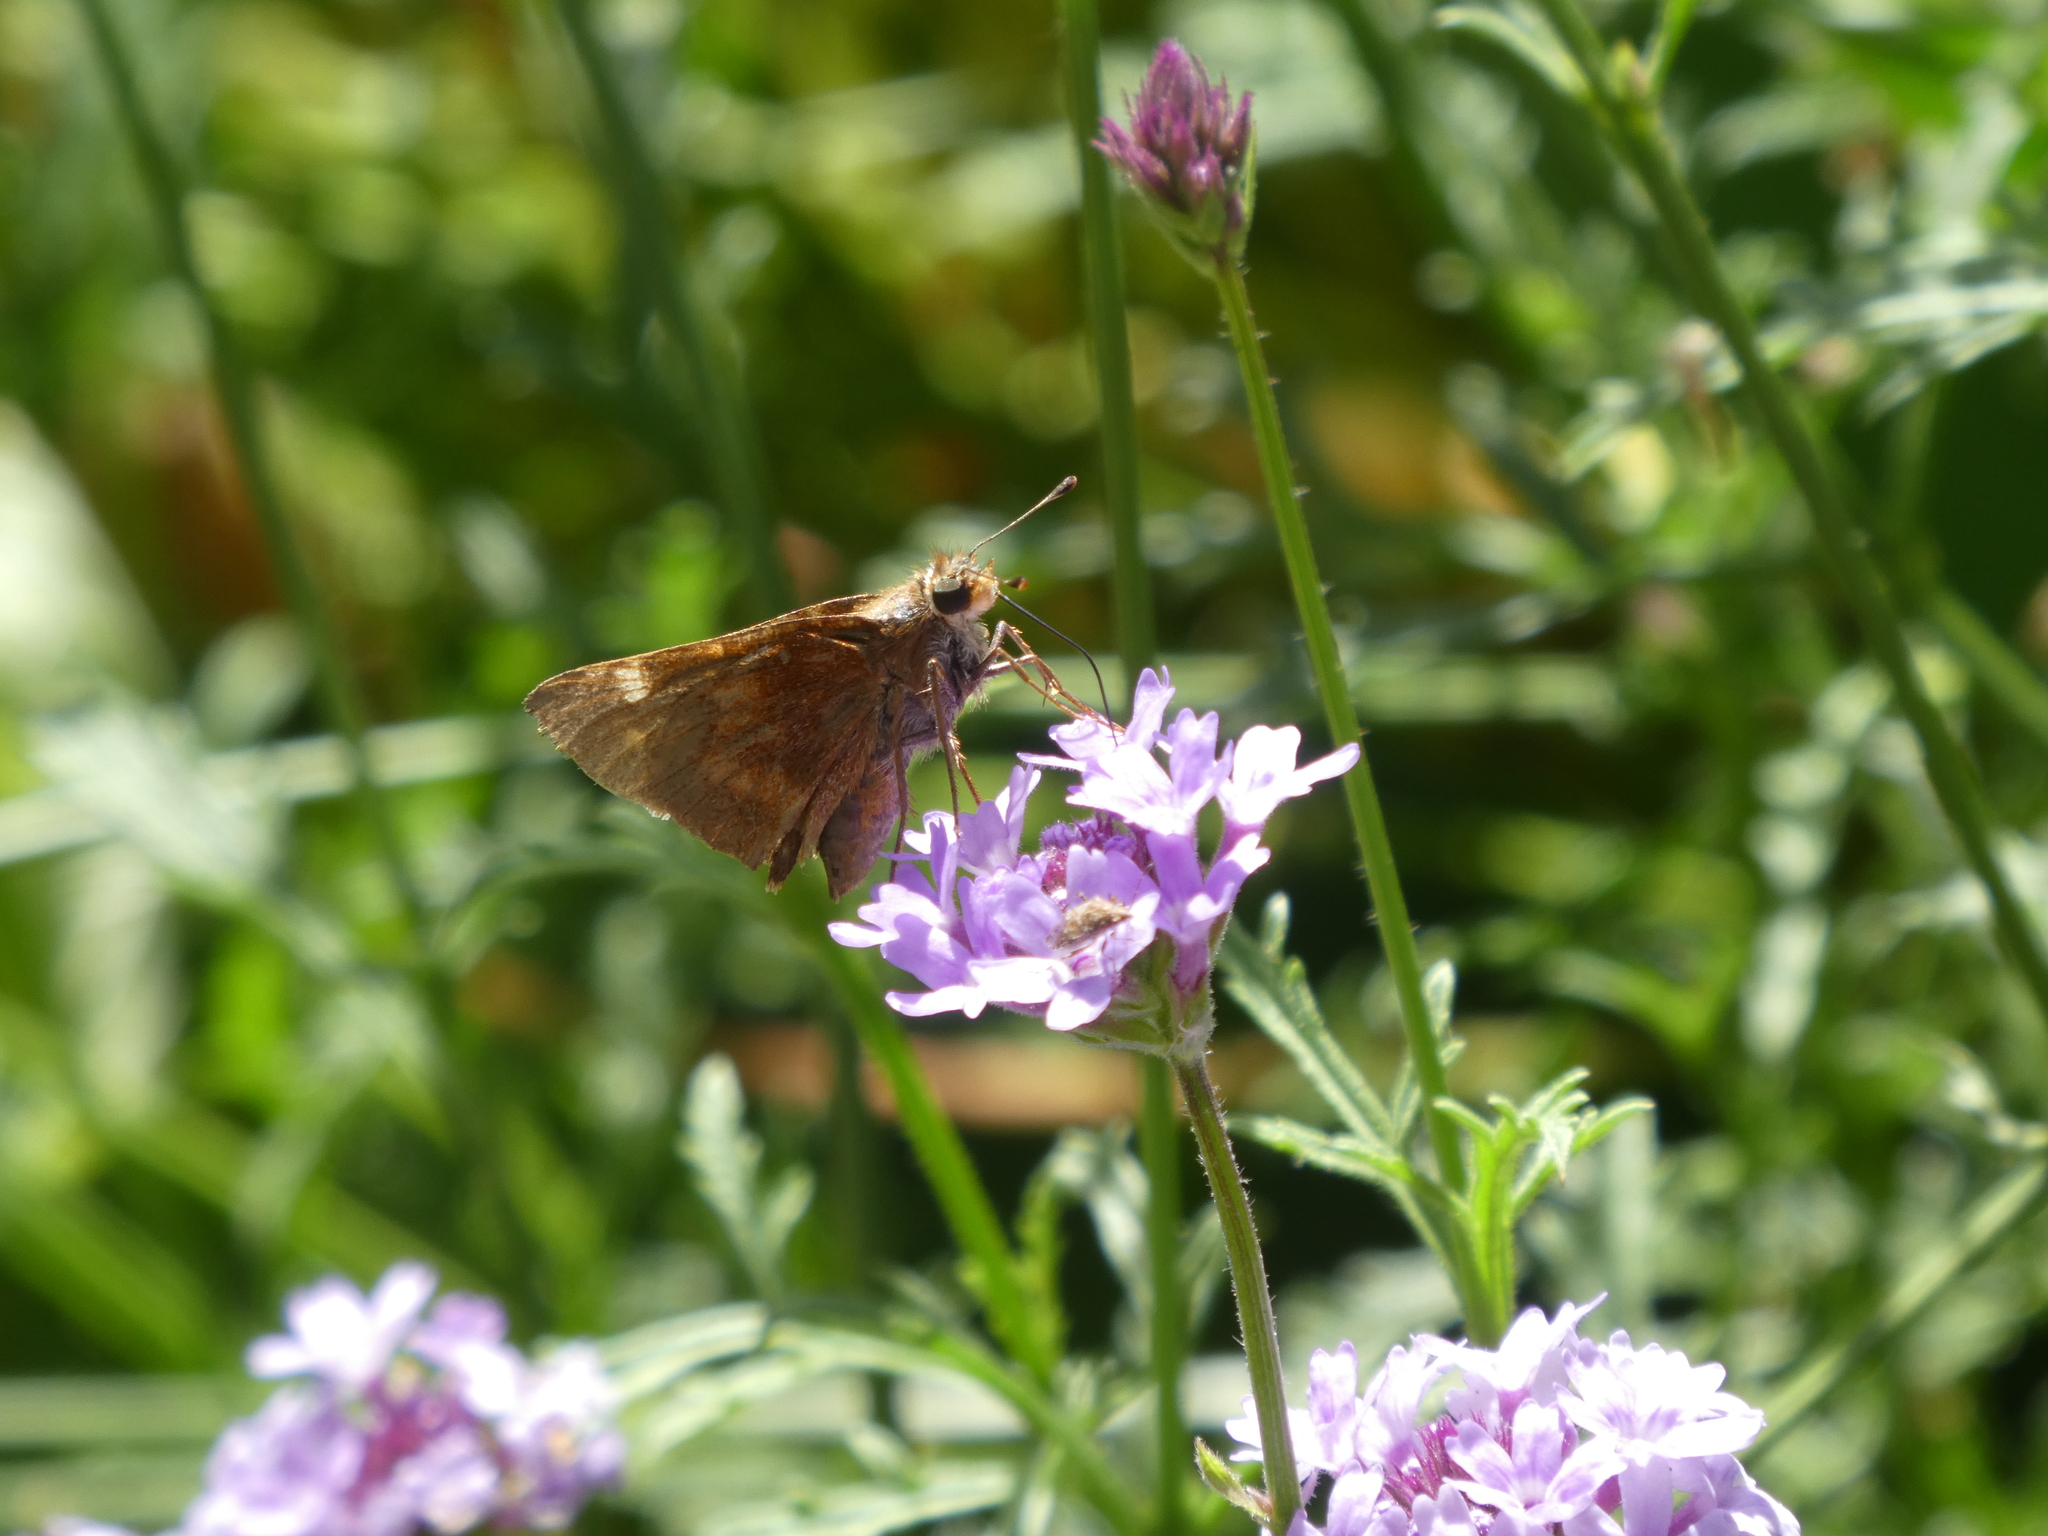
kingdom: Animalia
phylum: Arthropoda
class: Insecta
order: Lepidoptera
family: Hesperiidae
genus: Lon
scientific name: Lon melane
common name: Umber skipper
